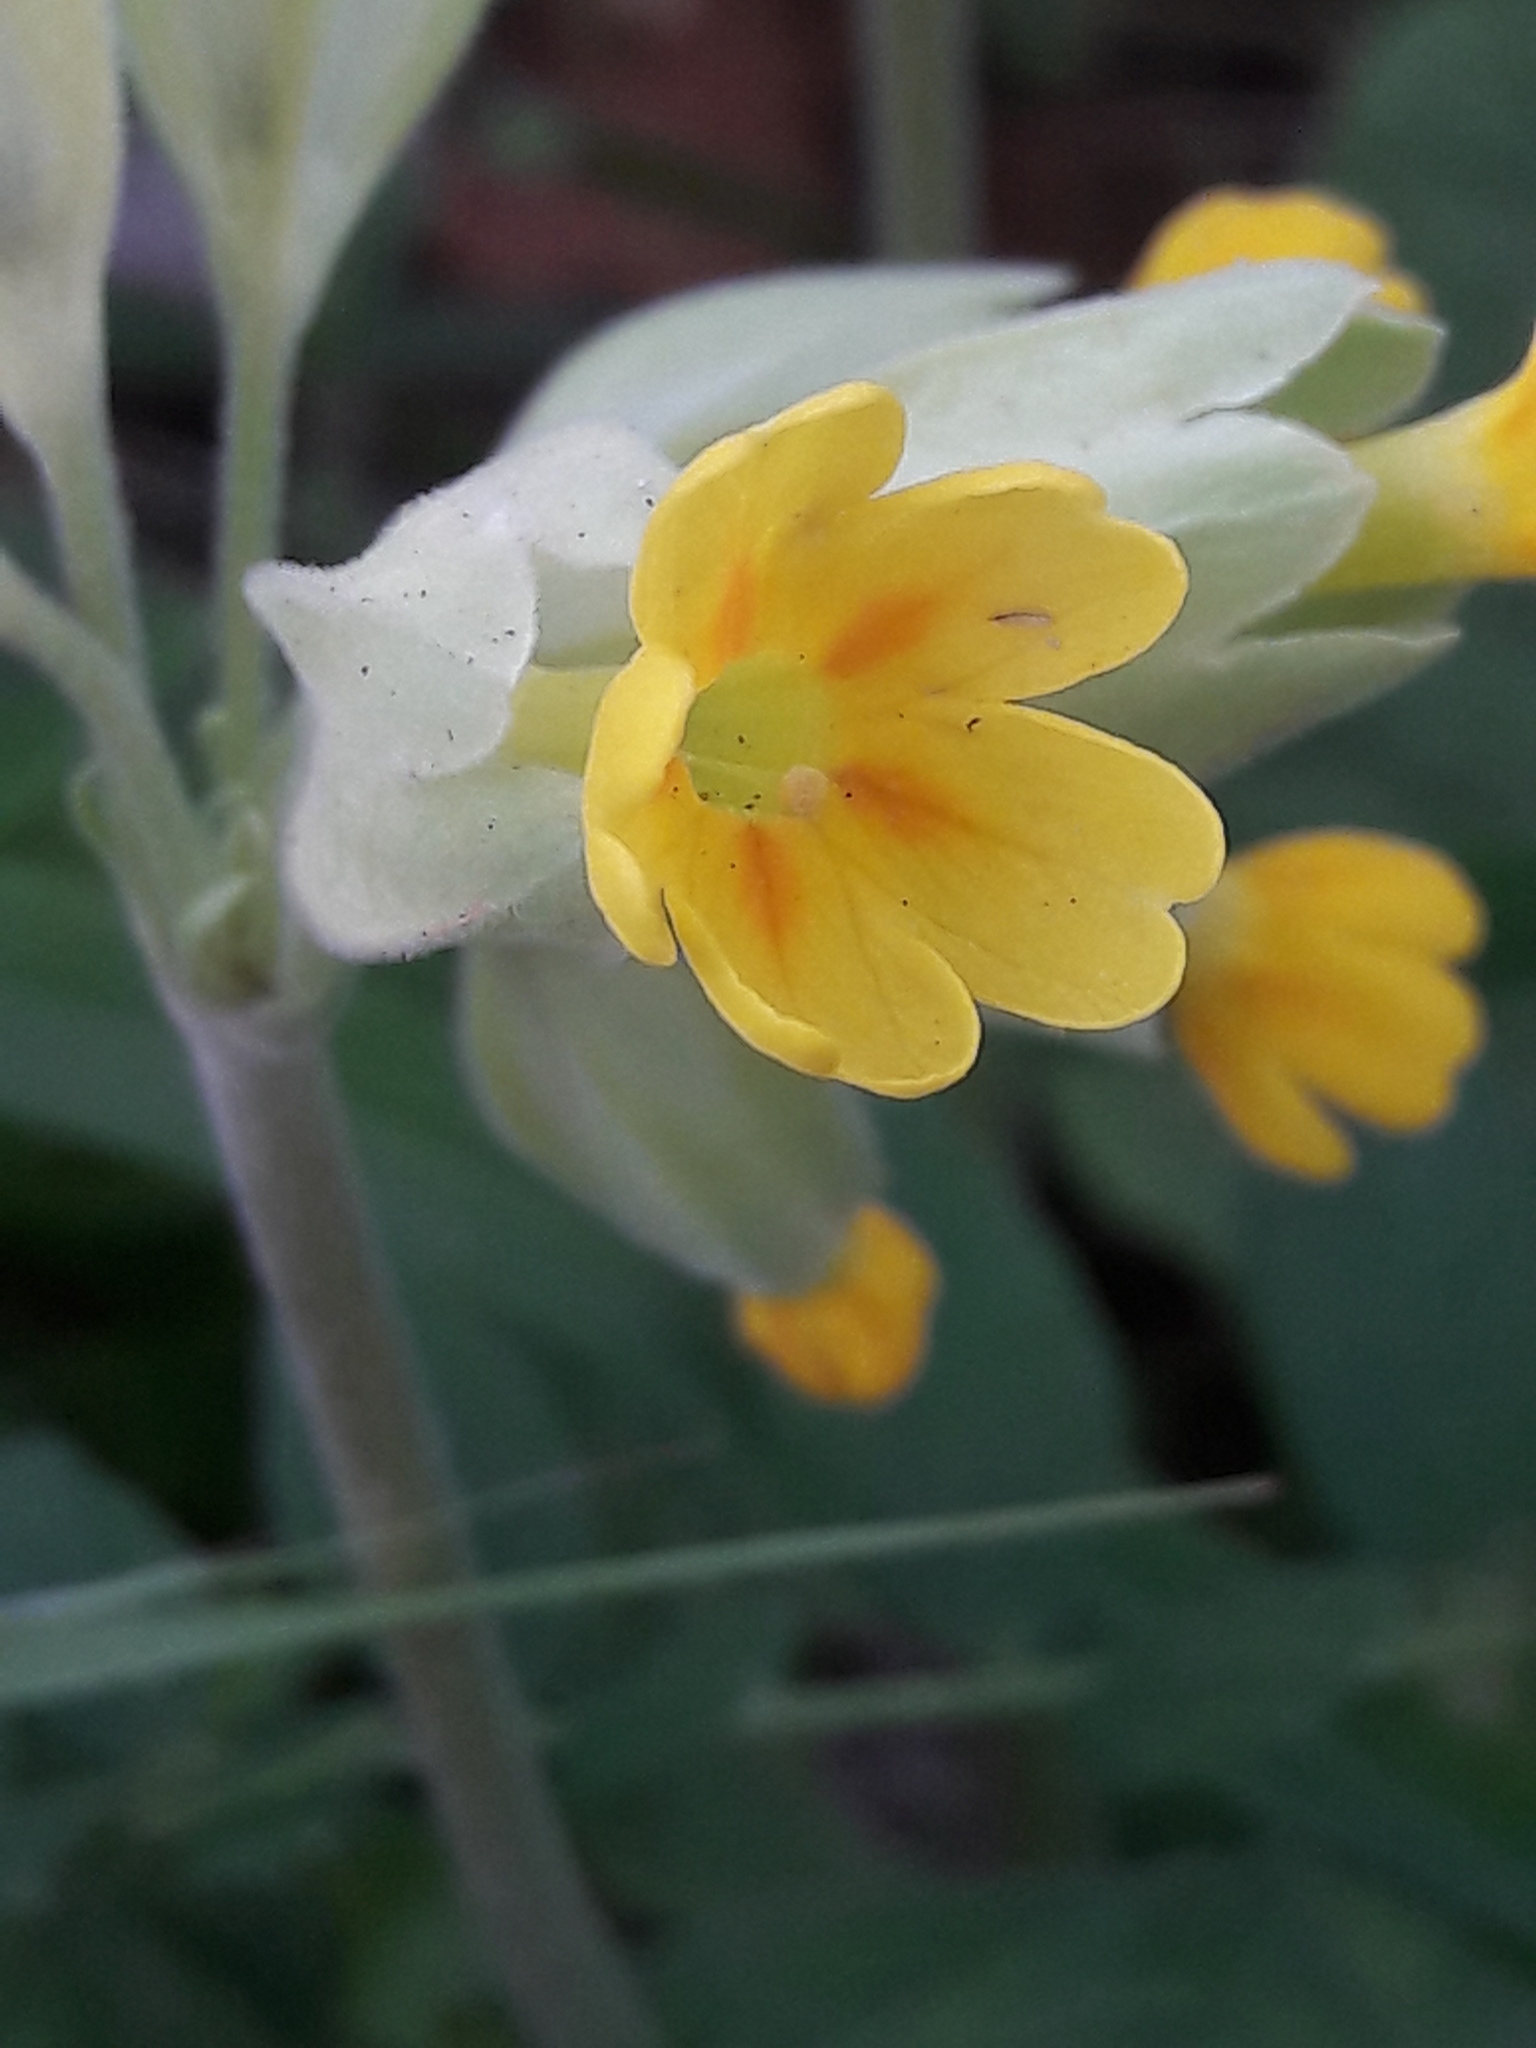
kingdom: Plantae
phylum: Tracheophyta
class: Magnoliopsida
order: Ericales
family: Primulaceae
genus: Primula
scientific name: Primula veris
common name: Cowslip
